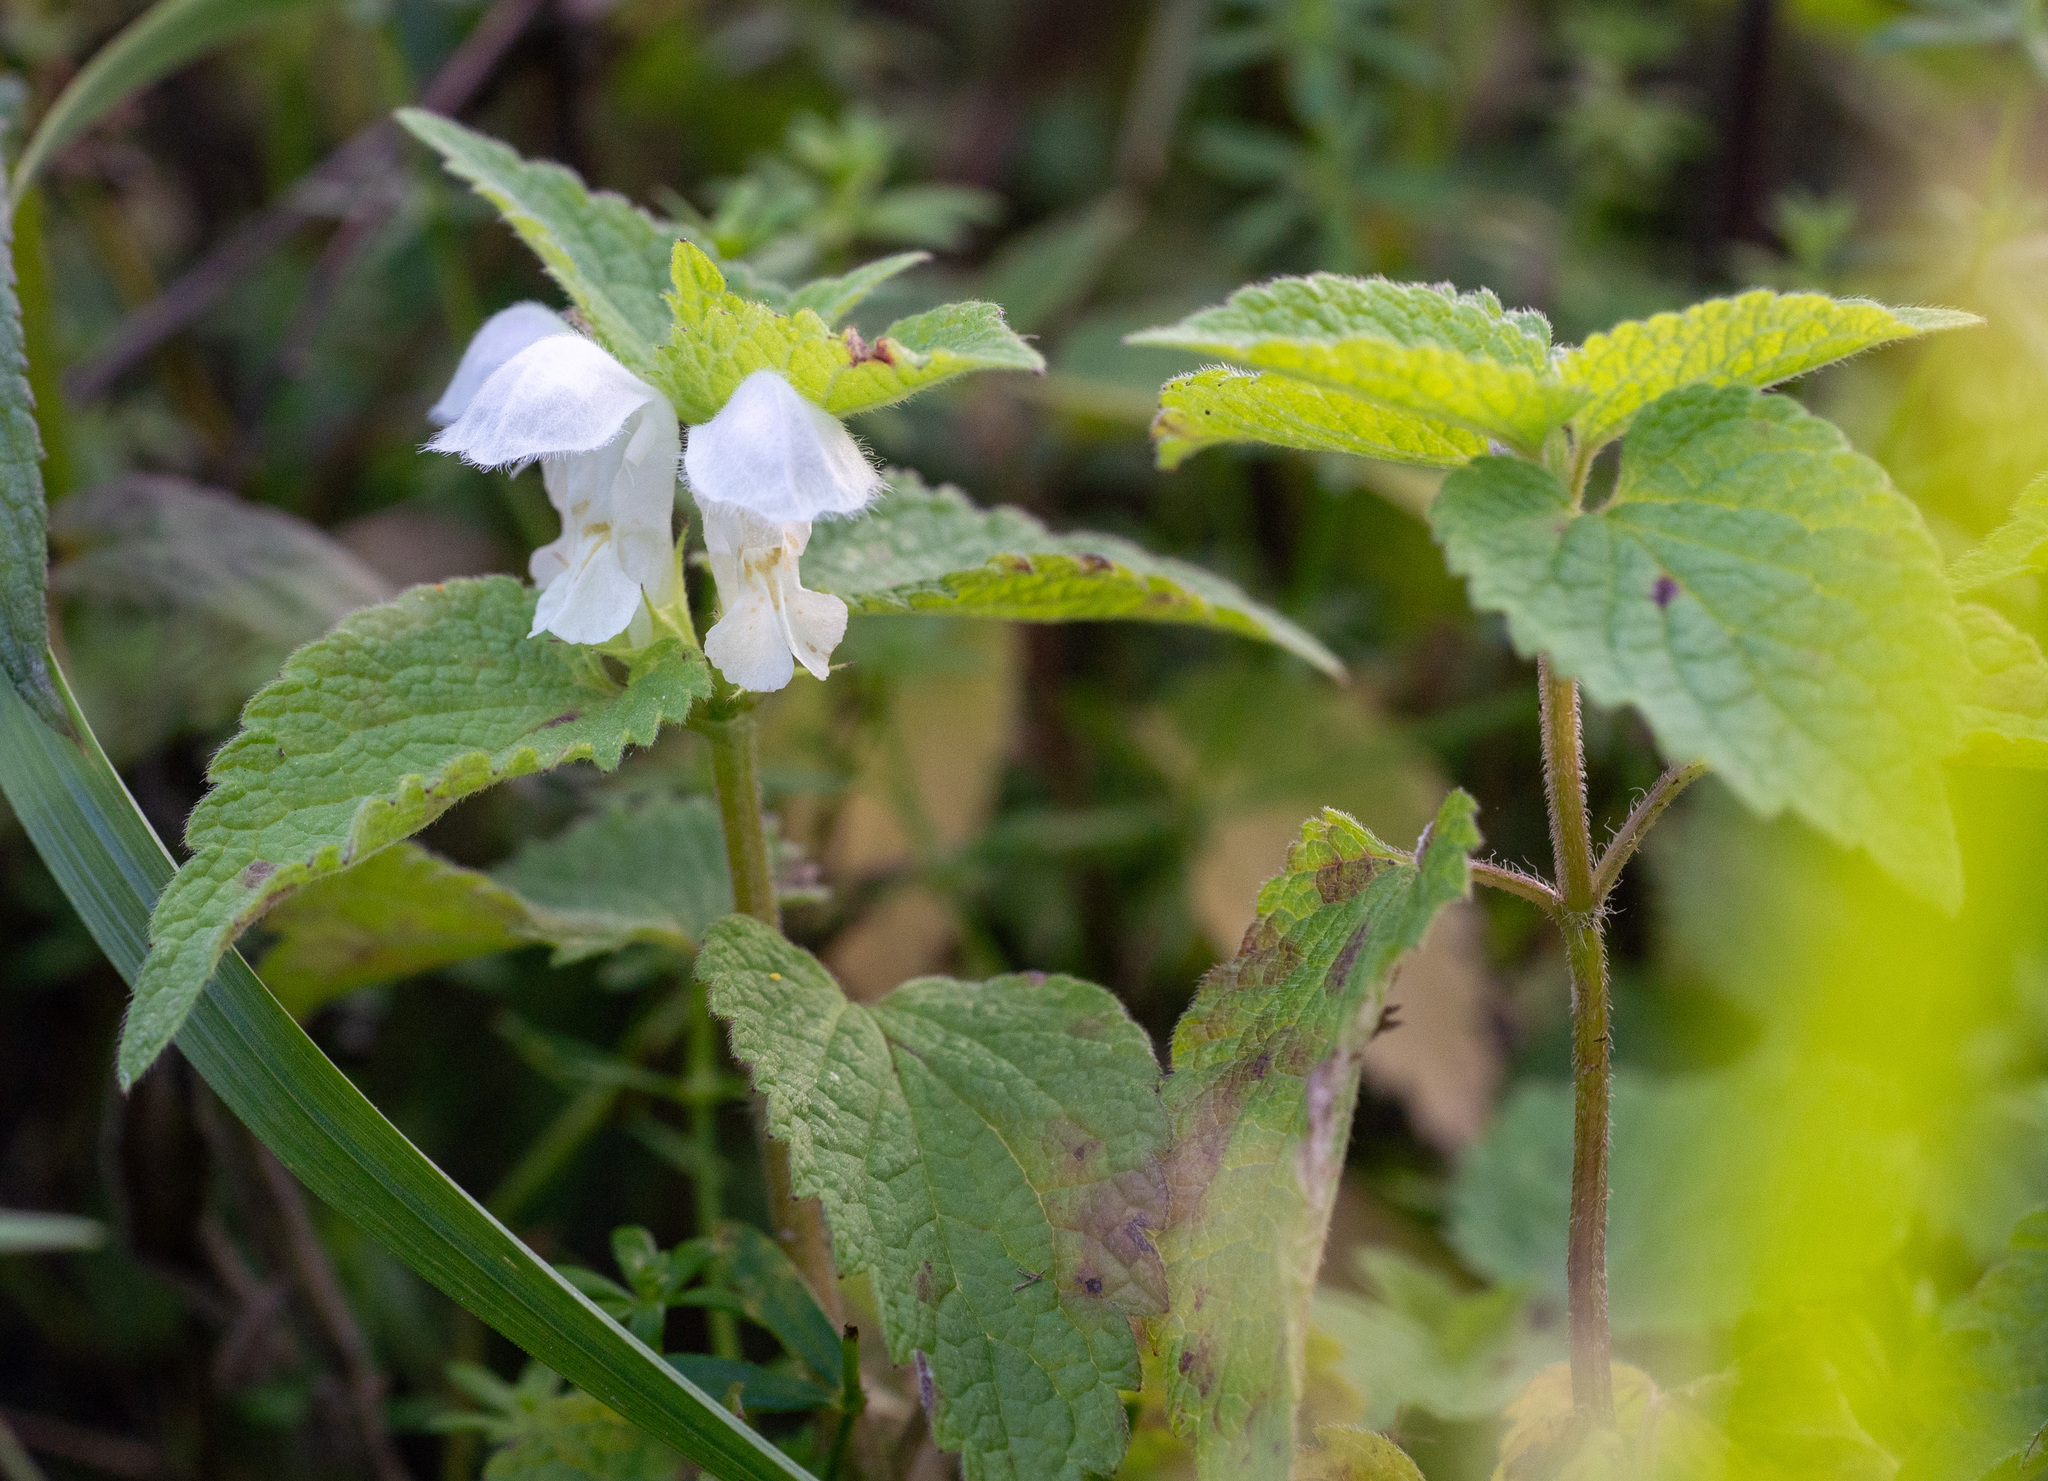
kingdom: Plantae
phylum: Tracheophyta
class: Magnoliopsida
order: Lamiales
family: Lamiaceae
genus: Lamium
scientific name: Lamium album
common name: White dead-nettle
